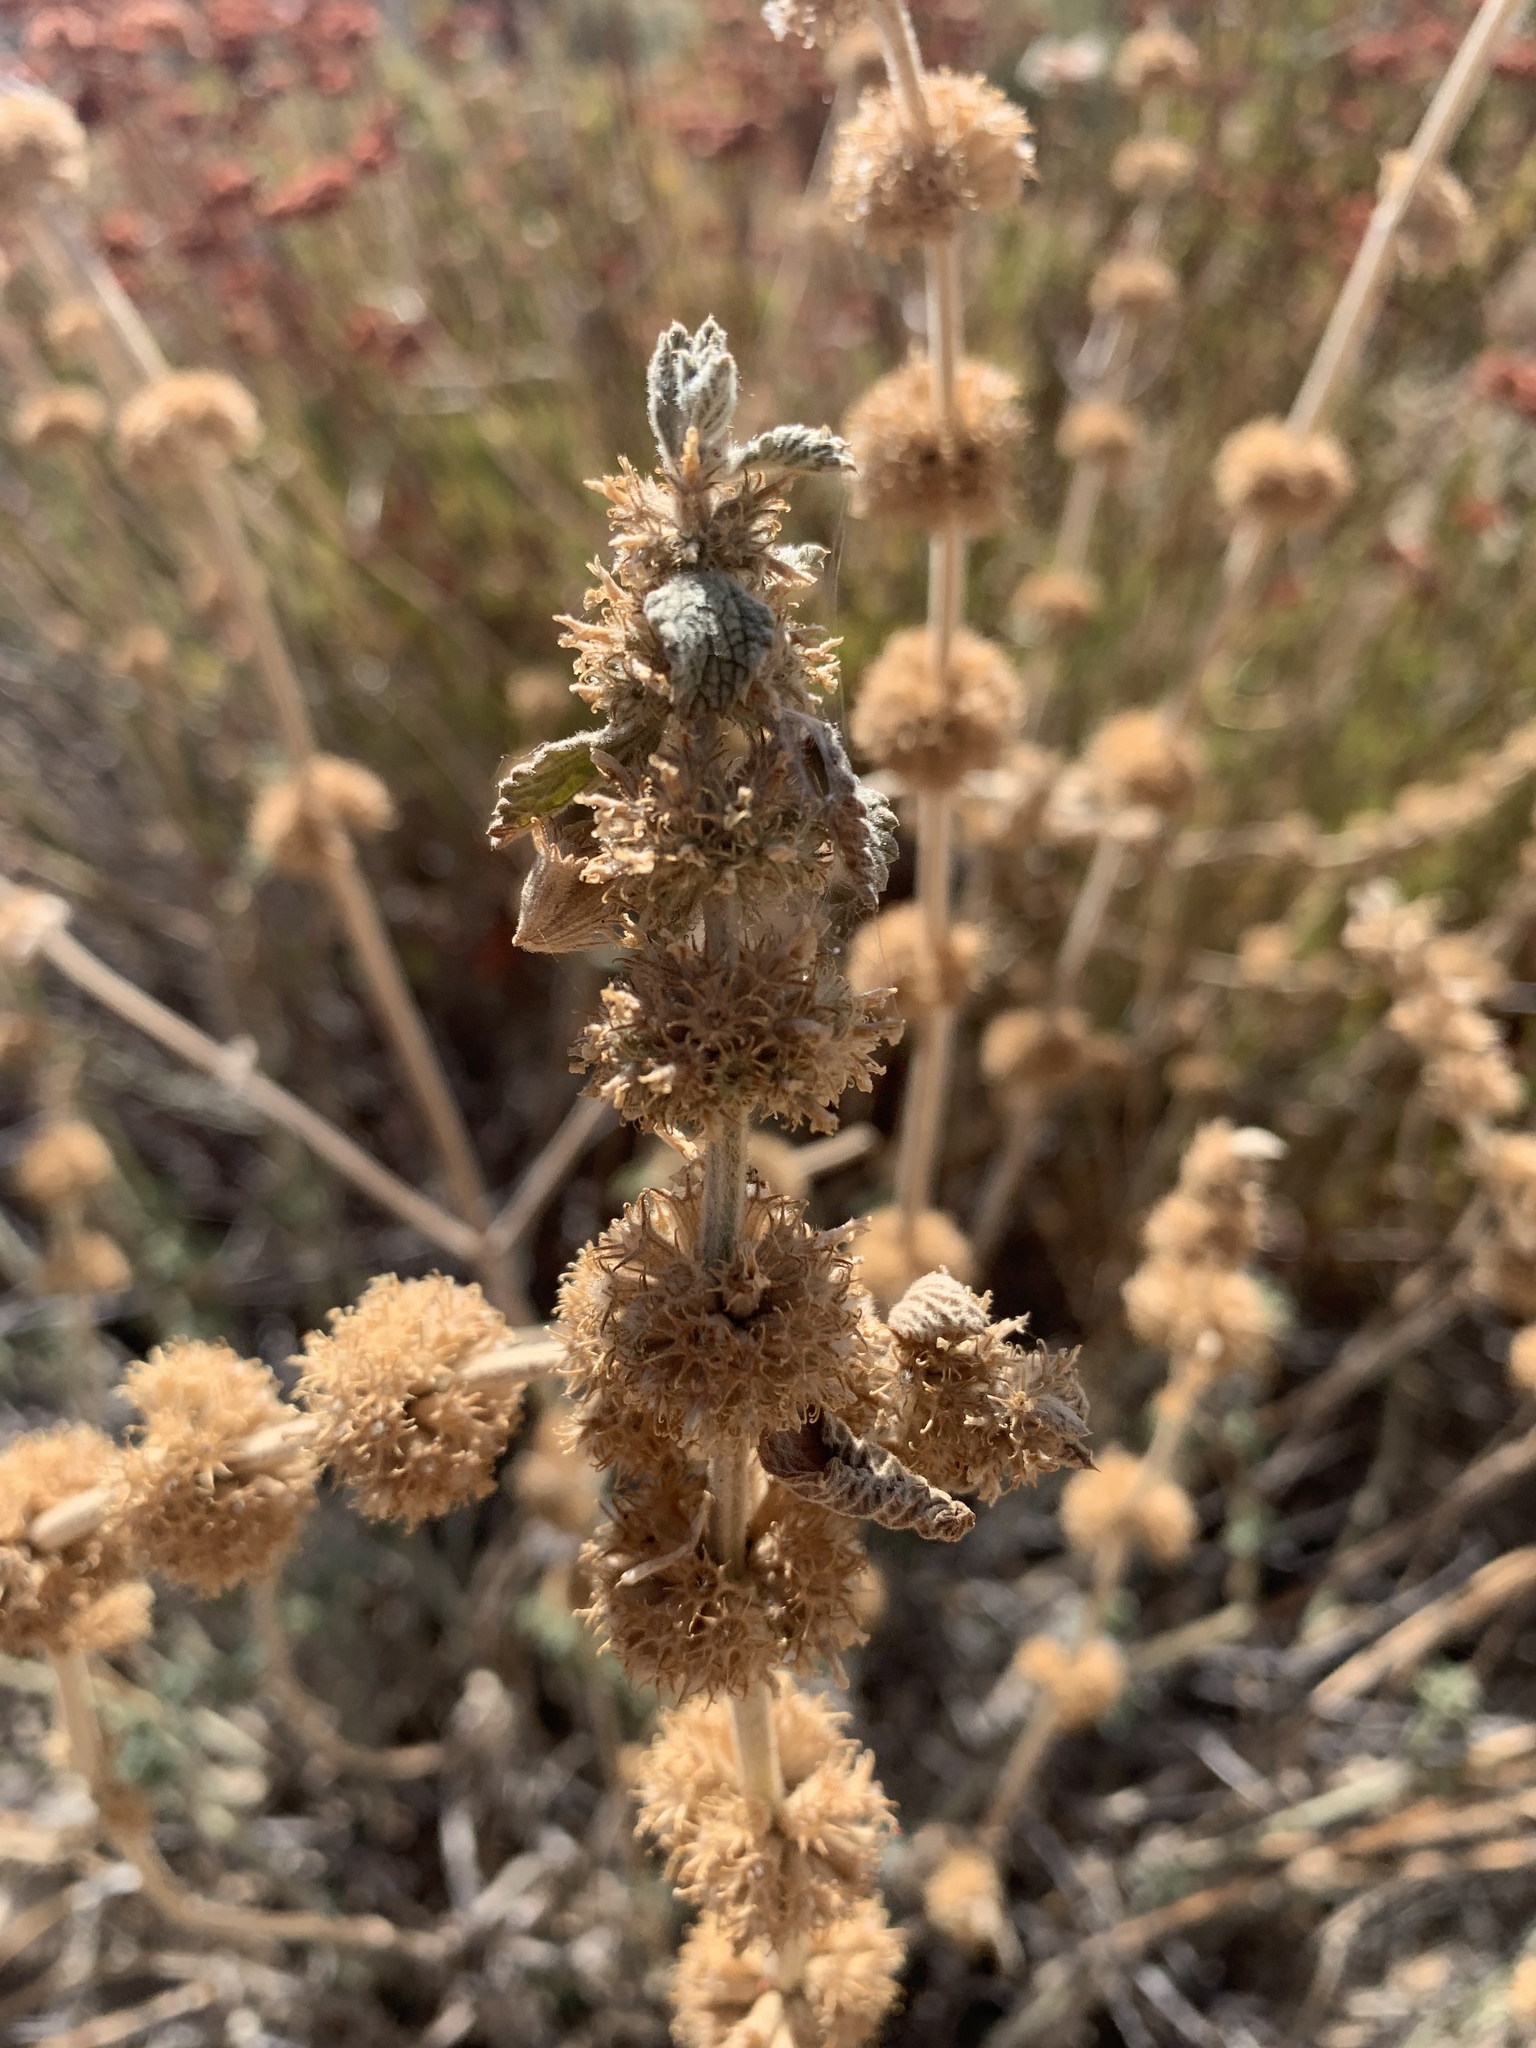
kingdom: Plantae
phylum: Tracheophyta
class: Magnoliopsida
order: Lamiales
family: Lamiaceae
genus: Marrubium
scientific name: Marrubium vulgare
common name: Horehound
